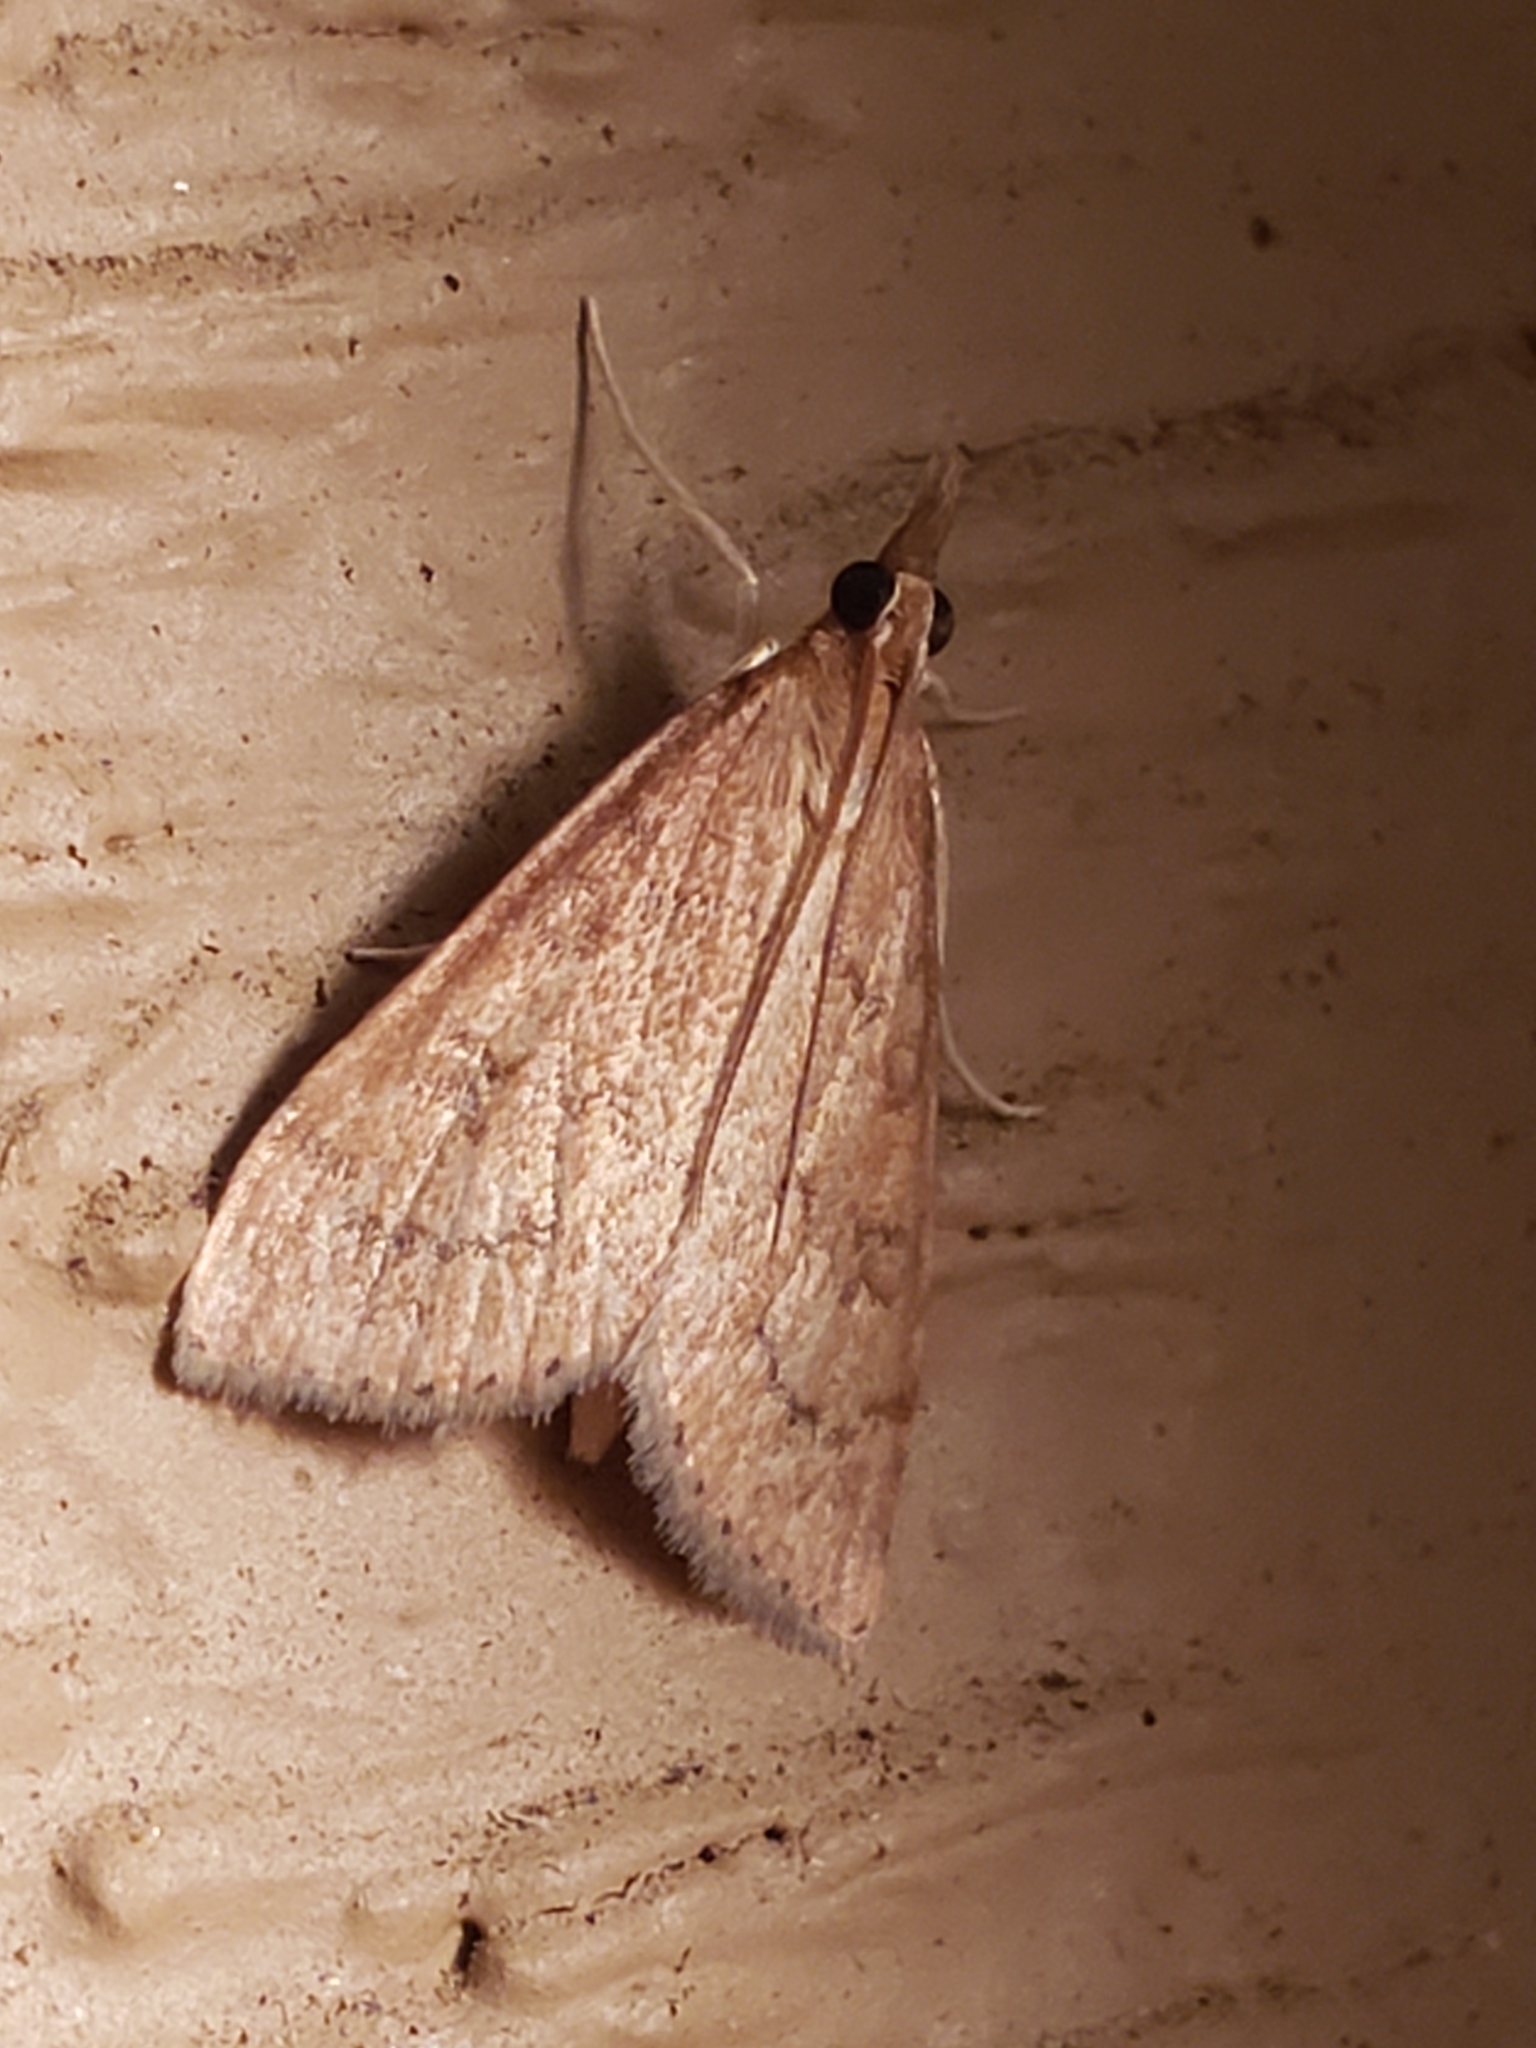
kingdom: Animalia
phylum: Arthropoda
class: Insecta
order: Lepidoptera
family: Crambidae
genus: Udea
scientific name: Udea rubigalis
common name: Celery leaftier moth
